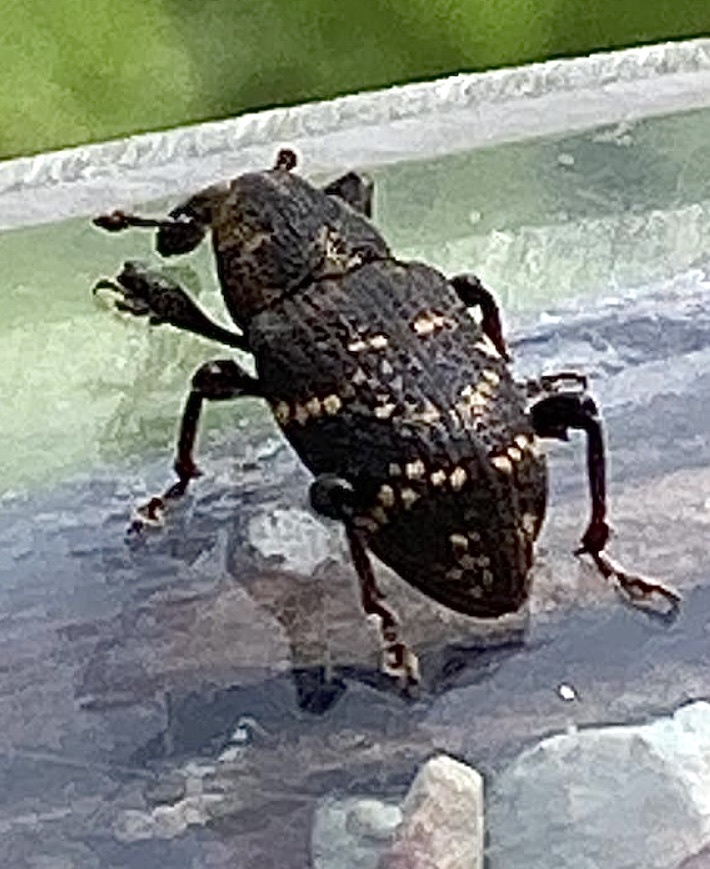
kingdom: Animalia
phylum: Arthropoda
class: Insecta
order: Coleoptera
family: Curculionidae
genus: Hylobius
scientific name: Hylobius abietis
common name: Large pine weevil
